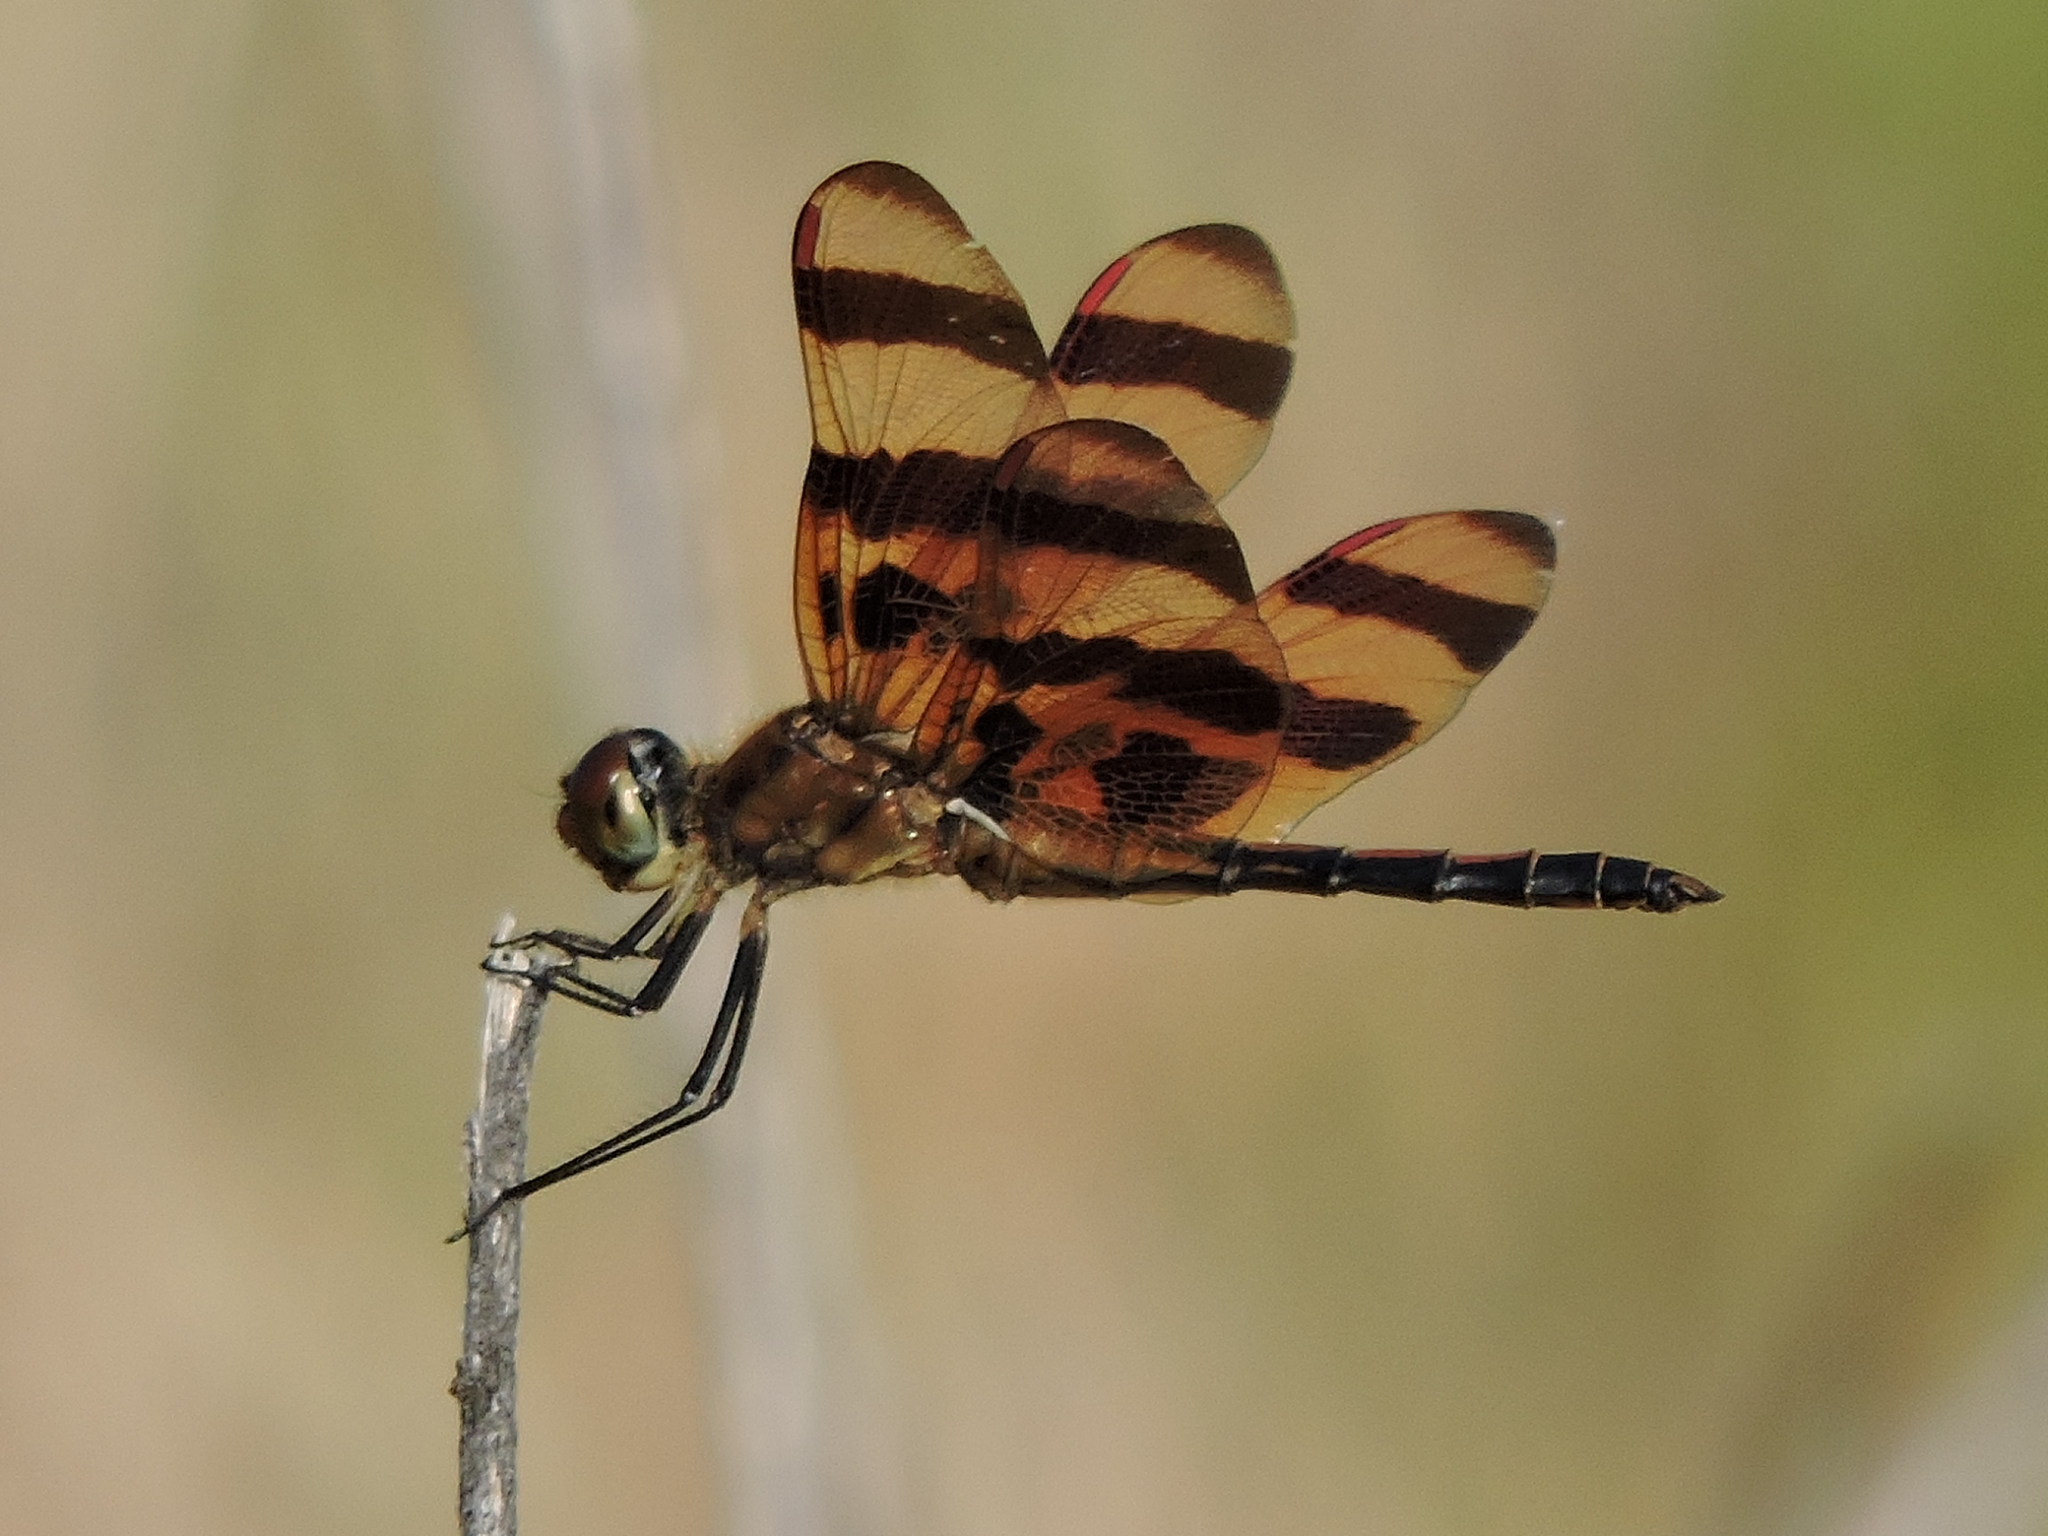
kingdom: Animalia
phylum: Arthropoda
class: Insecta
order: Odonata
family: Libellulidae
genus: Celithemis
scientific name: Celithemis eponina
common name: Halloween pennant
